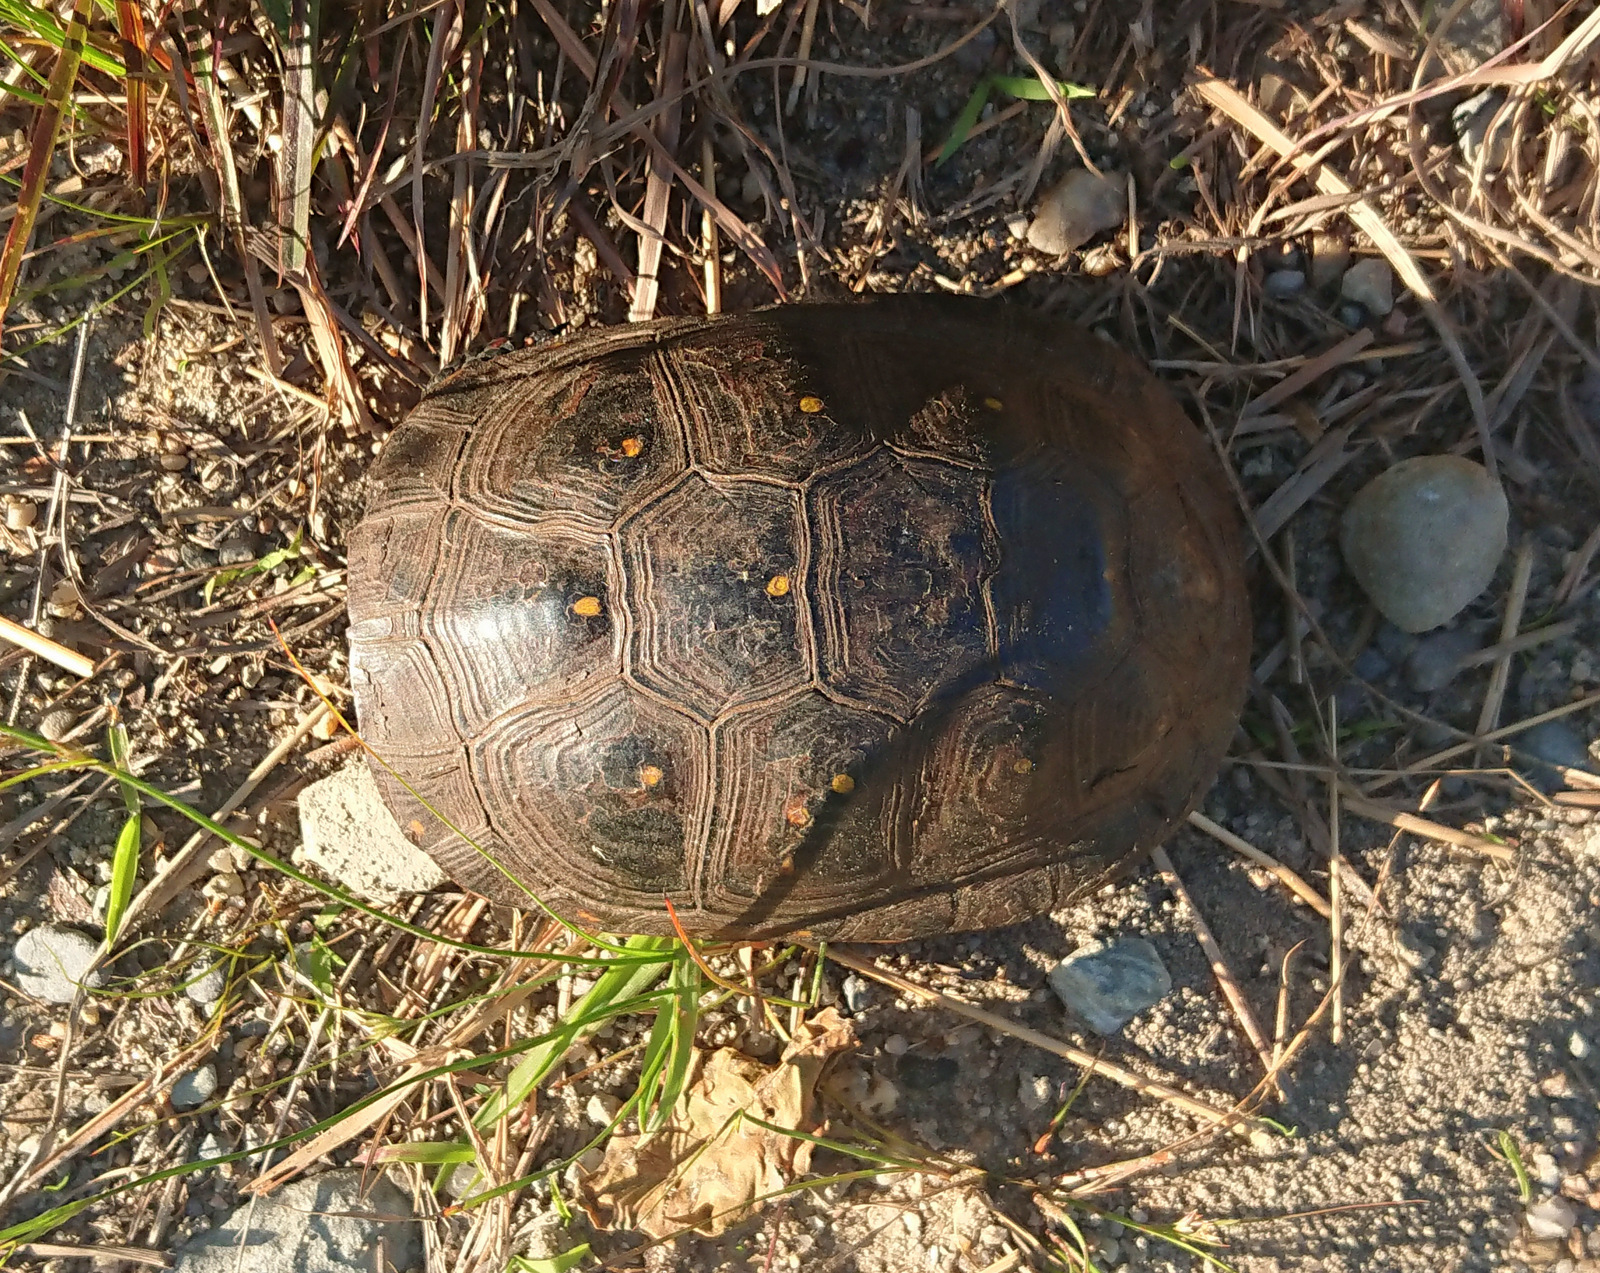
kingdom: Animalia
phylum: Chordata
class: Testudines
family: Emydidae
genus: Clemmys
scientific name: Clemmys guttata
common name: Spotted turtle
